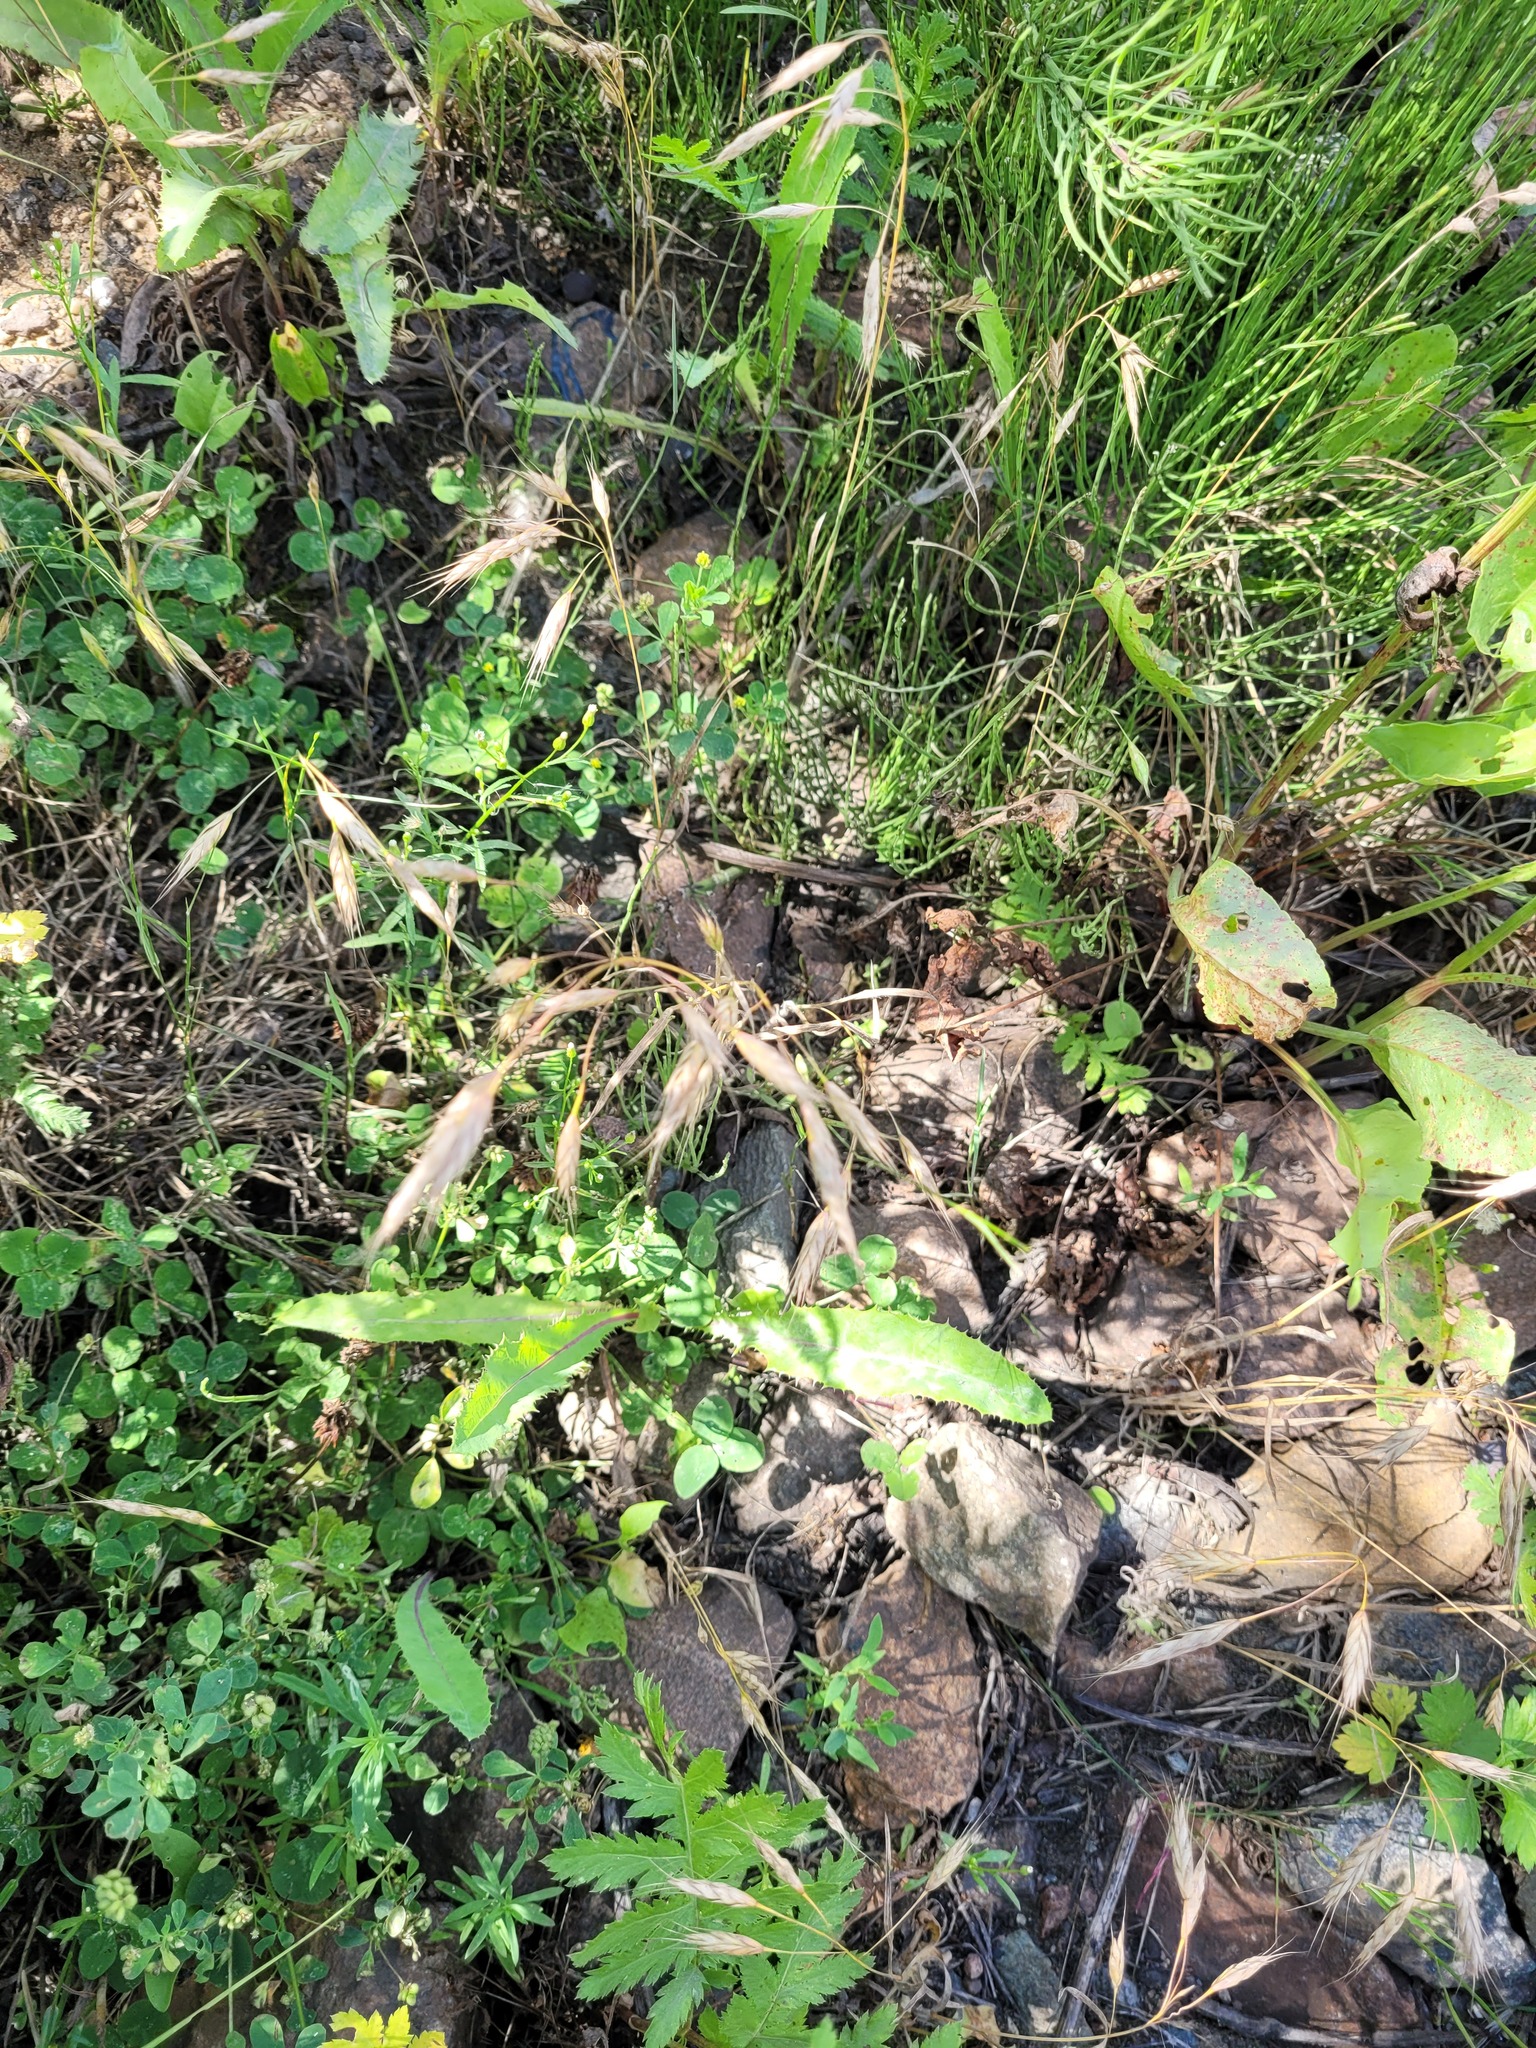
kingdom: Plantae
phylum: Tracheophyta
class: Liliopsida
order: Poales
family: Poaceae
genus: Bromus
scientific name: Bromus japonicus
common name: Japanese brome
